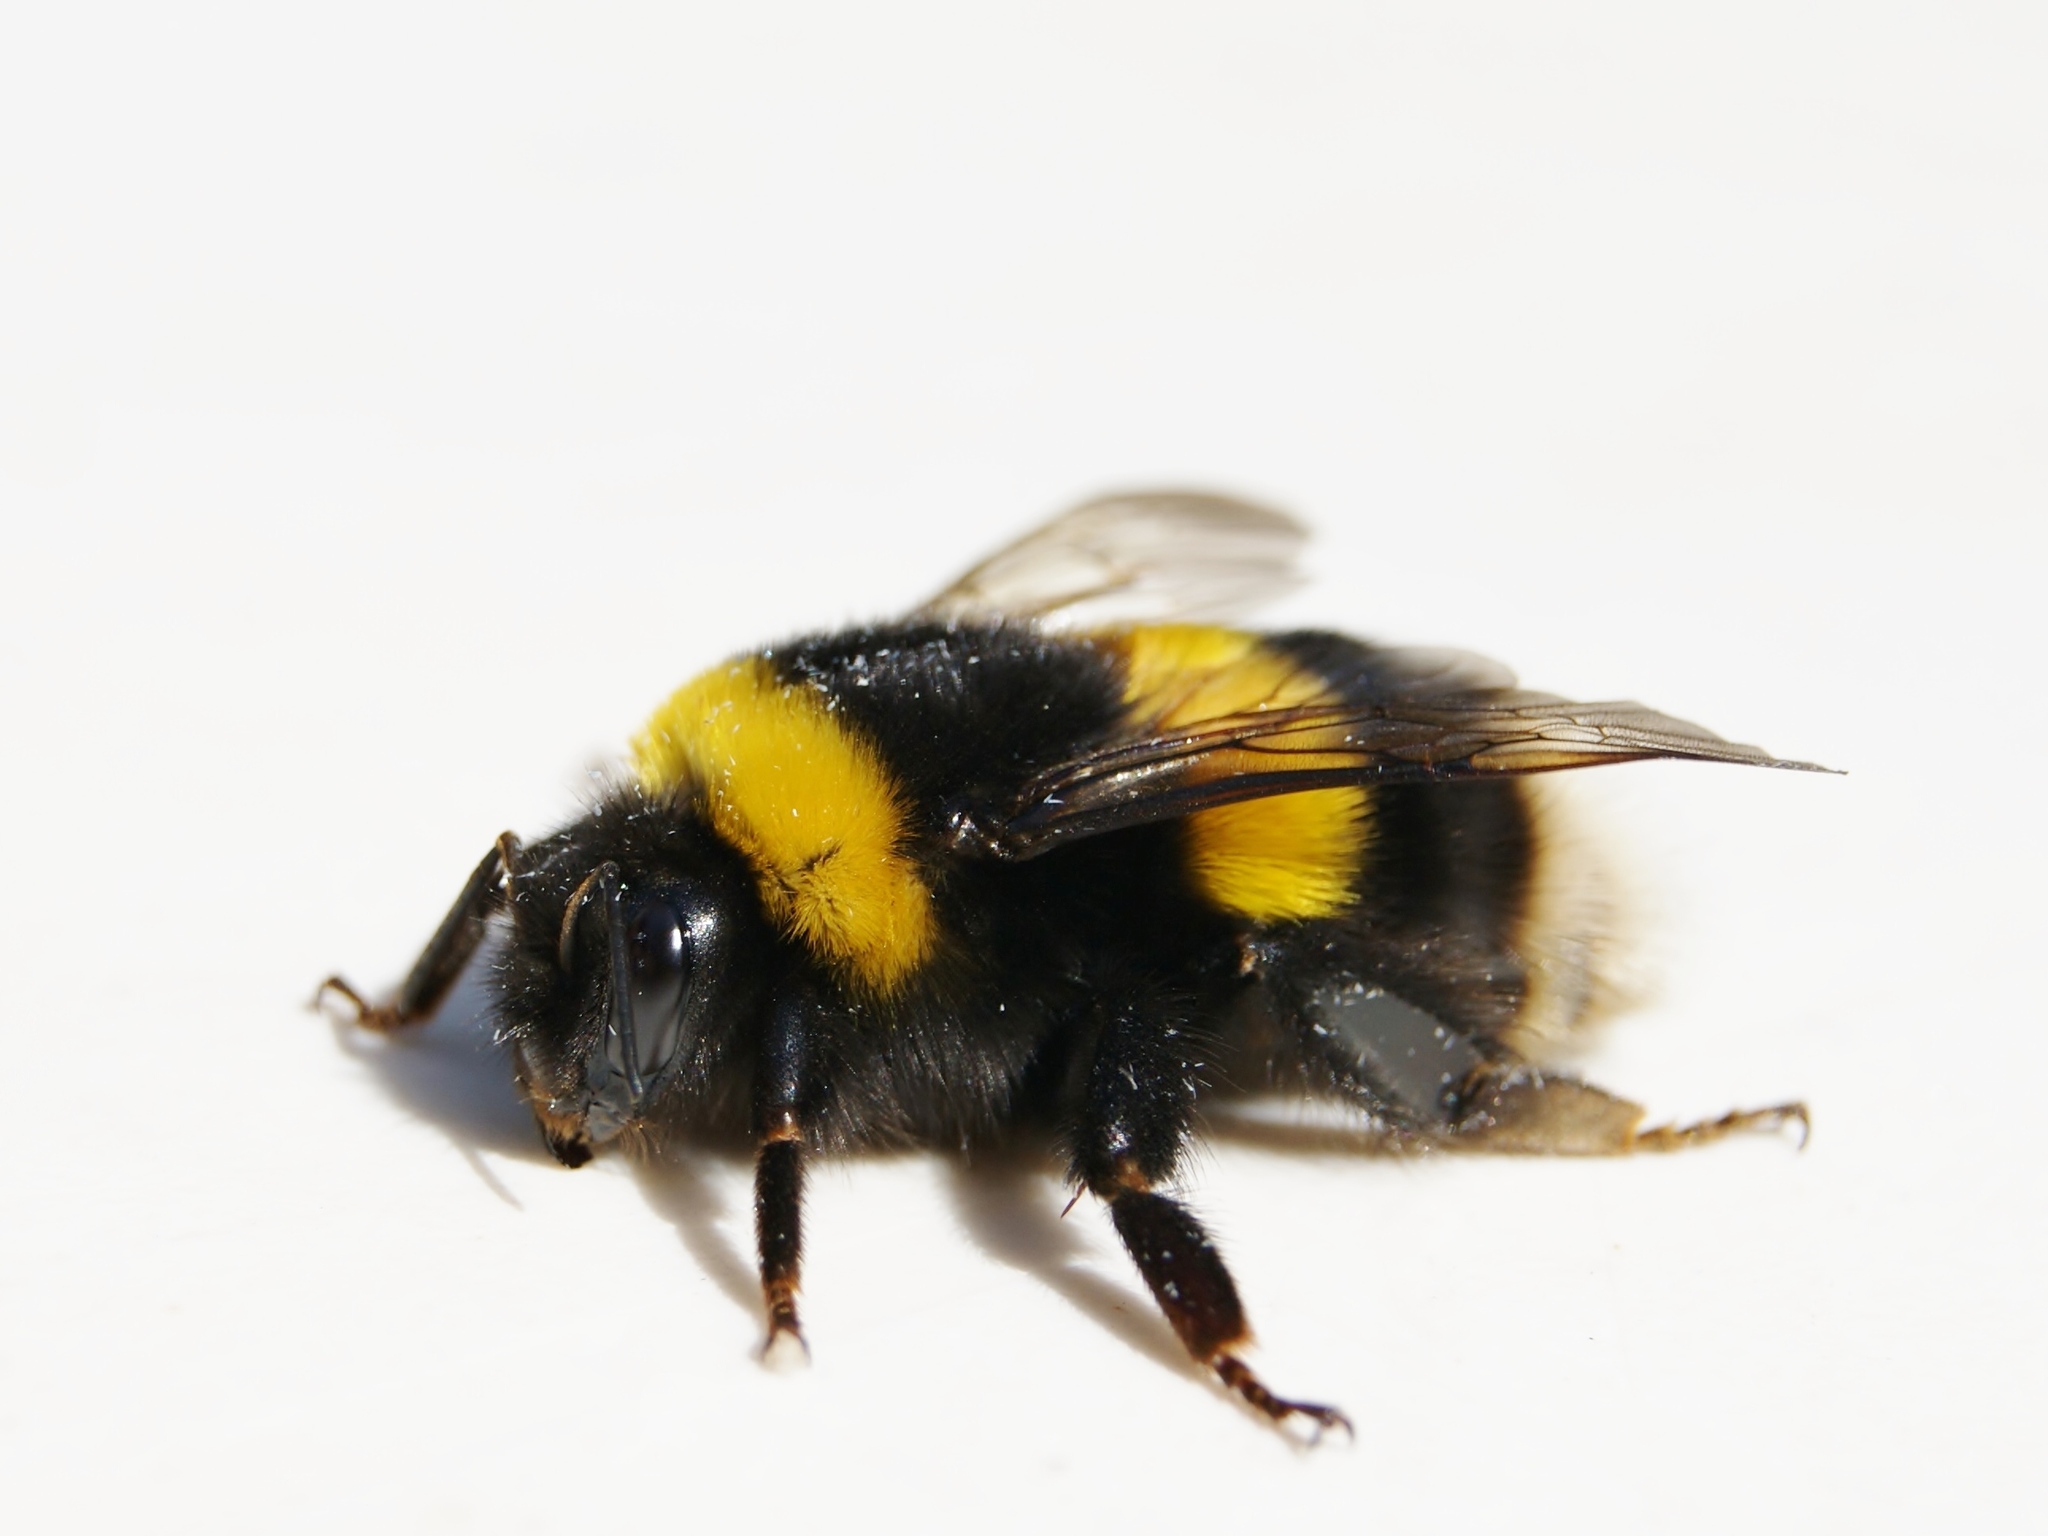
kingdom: Animalia
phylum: Arthropoda
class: Insecta
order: Hymenoptera
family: Apidae
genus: Bombus
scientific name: Bombus terrestris
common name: Buff-tailed bumblebee
